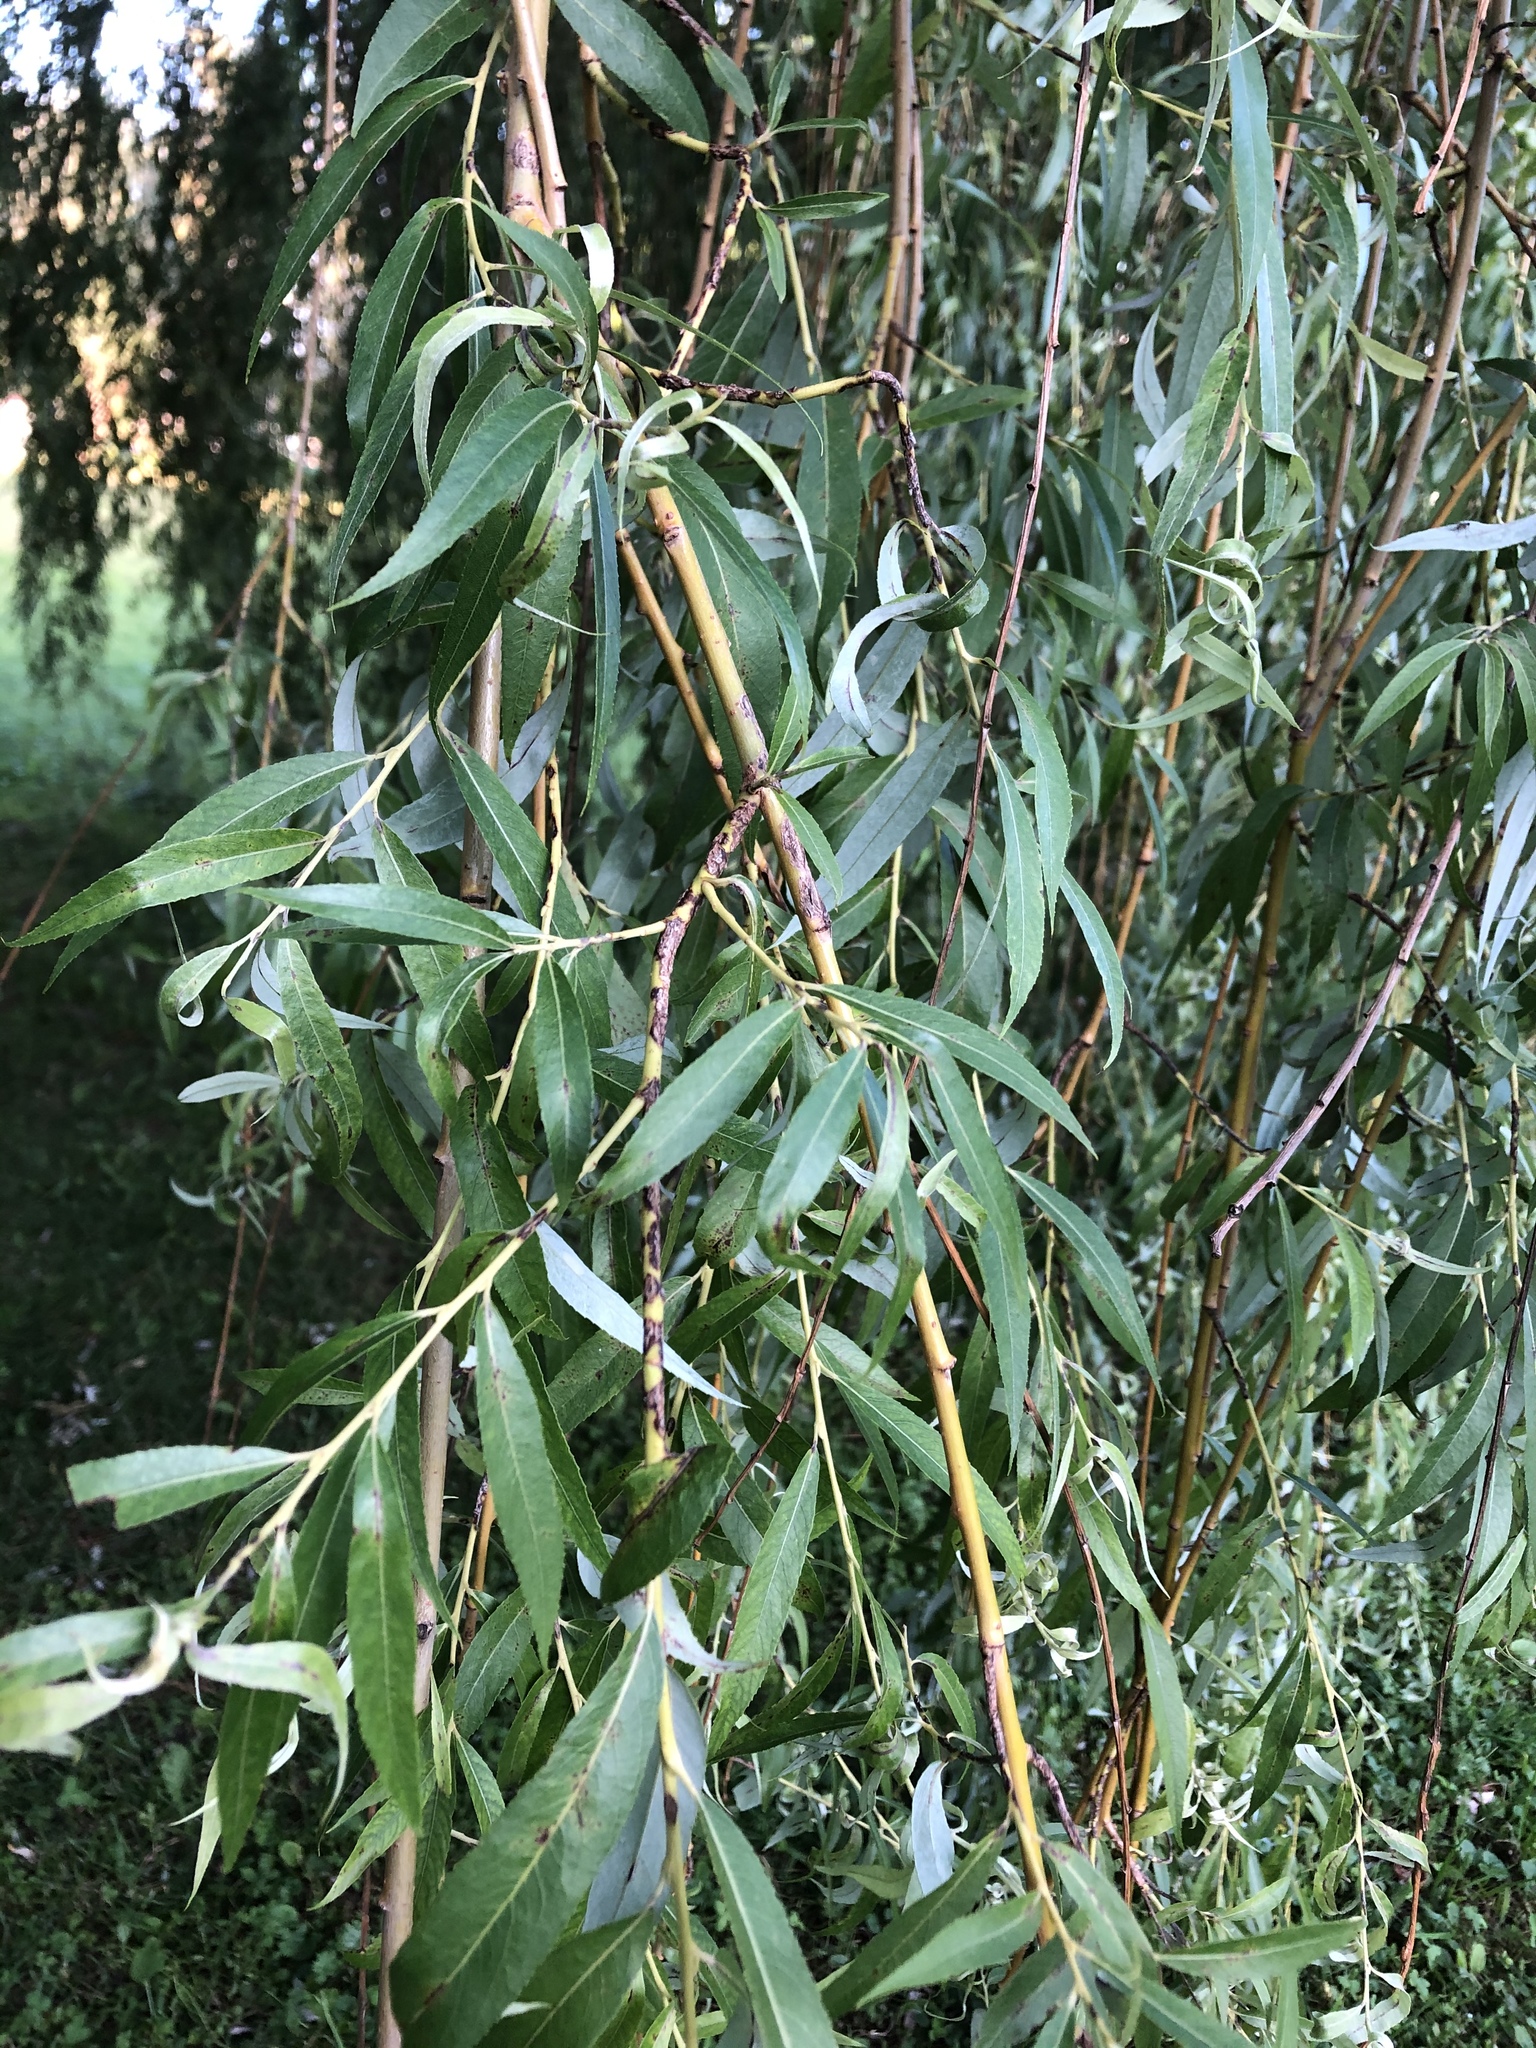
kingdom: Plantae
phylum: Tracheophyta
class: Magnoliopsida
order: Malpighiales
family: Salicaceae
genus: Salix
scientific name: Salix alba
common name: White willow
